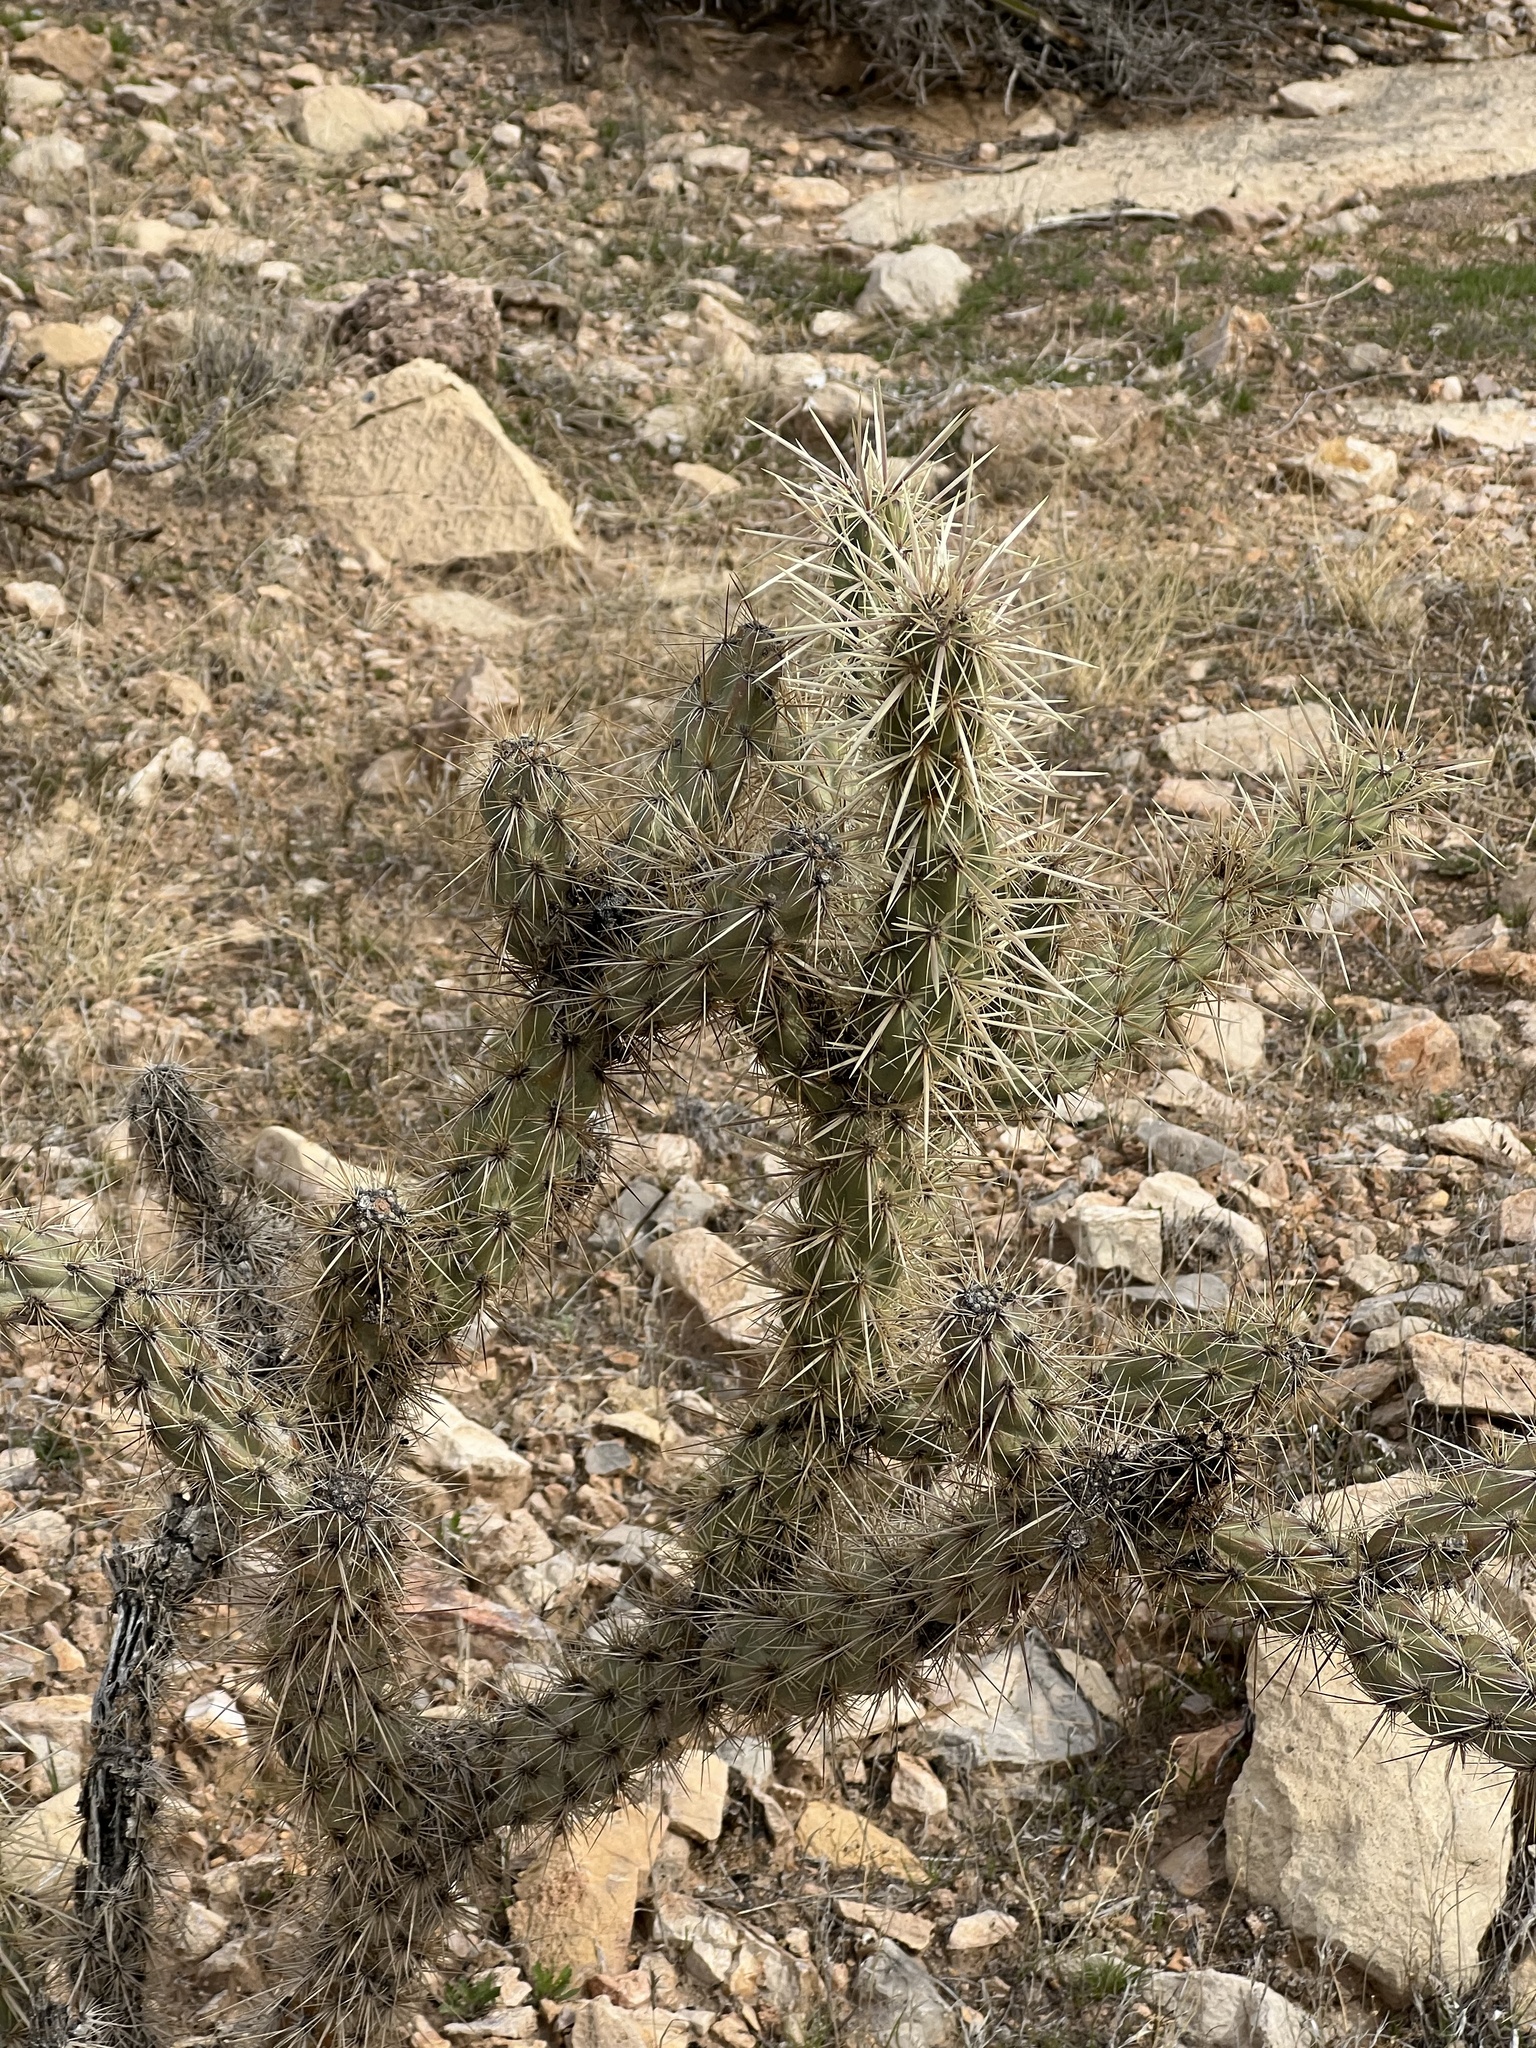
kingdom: Plantae
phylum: Tracheophyta
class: Magnoliopsida
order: Caryophyllales
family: Cactaceae
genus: Cylindropuntia
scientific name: Cylindropuntia acanthocarpa
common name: Buckhorn cholla
